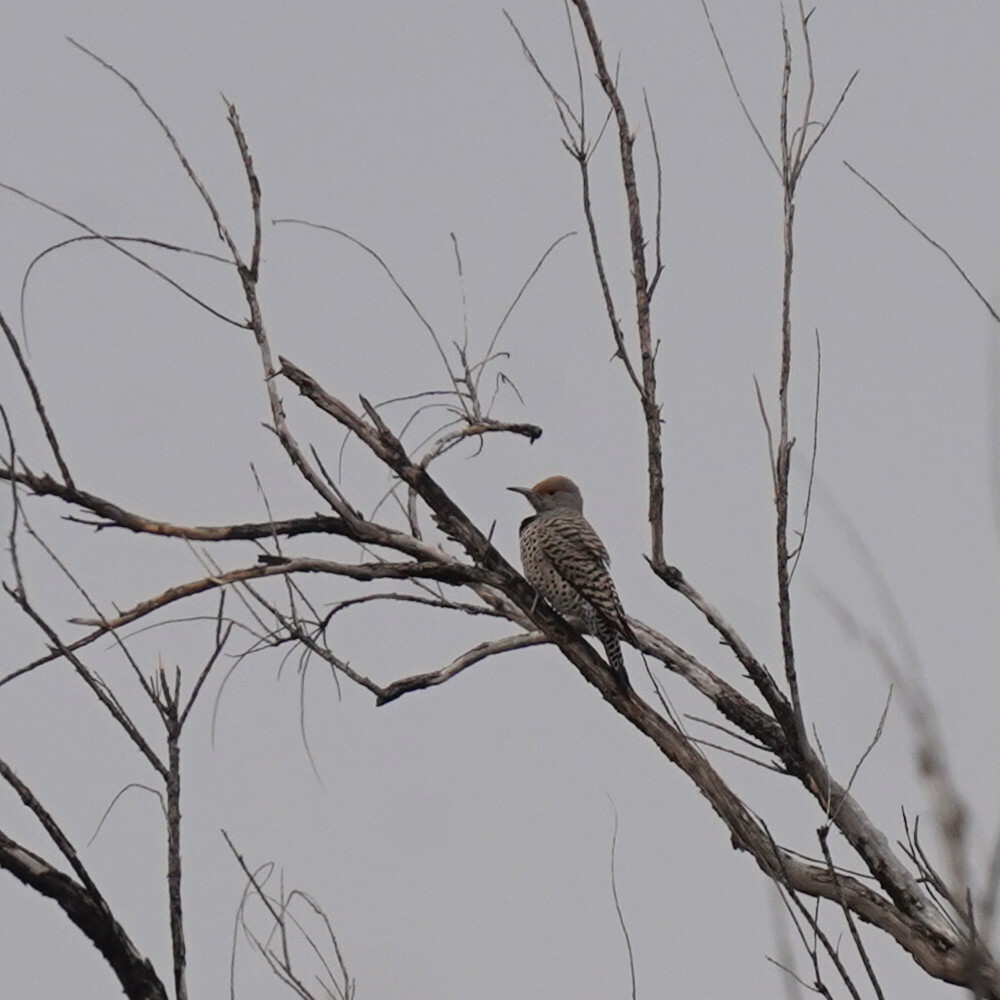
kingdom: Animalia
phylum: Chordata
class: Aves
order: Piciformes
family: Picidae
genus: Colaptes
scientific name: Colaptes auratus
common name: Northern flicker
